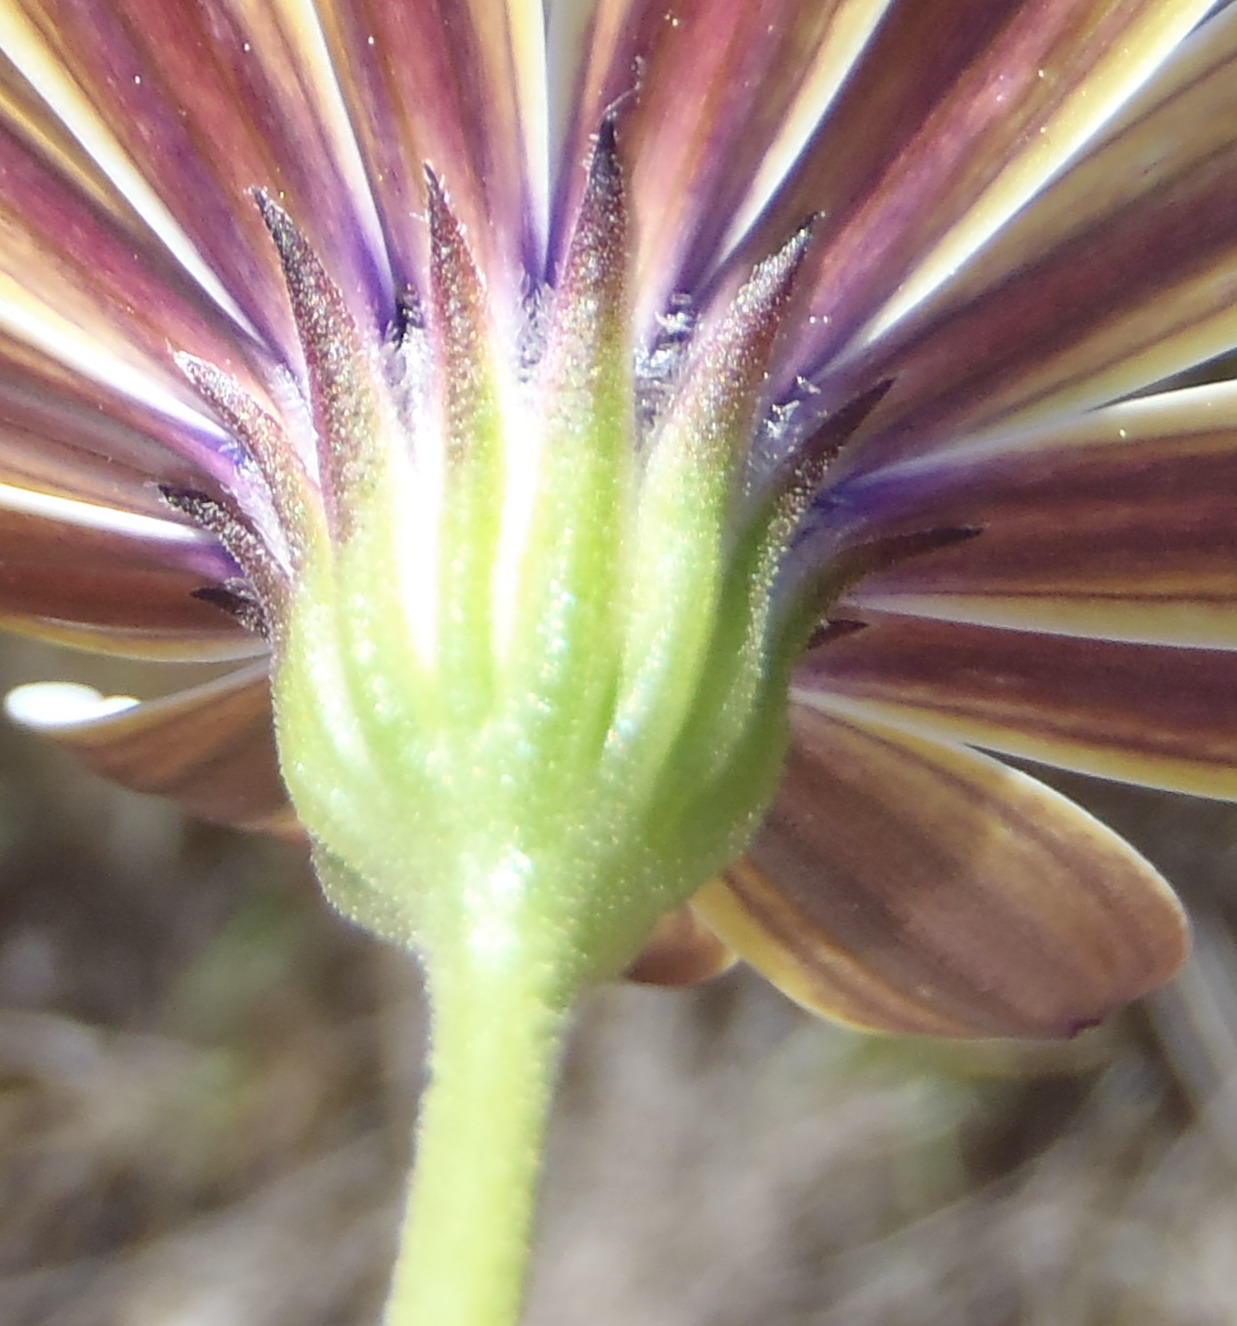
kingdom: Plantae
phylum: Tracheophyta
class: Magnoliopsida
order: Asterales
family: Asteraceae
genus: Dimorphotheca
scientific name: Dimorphotheca ecklonis
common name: Vanstaden's river daisy
